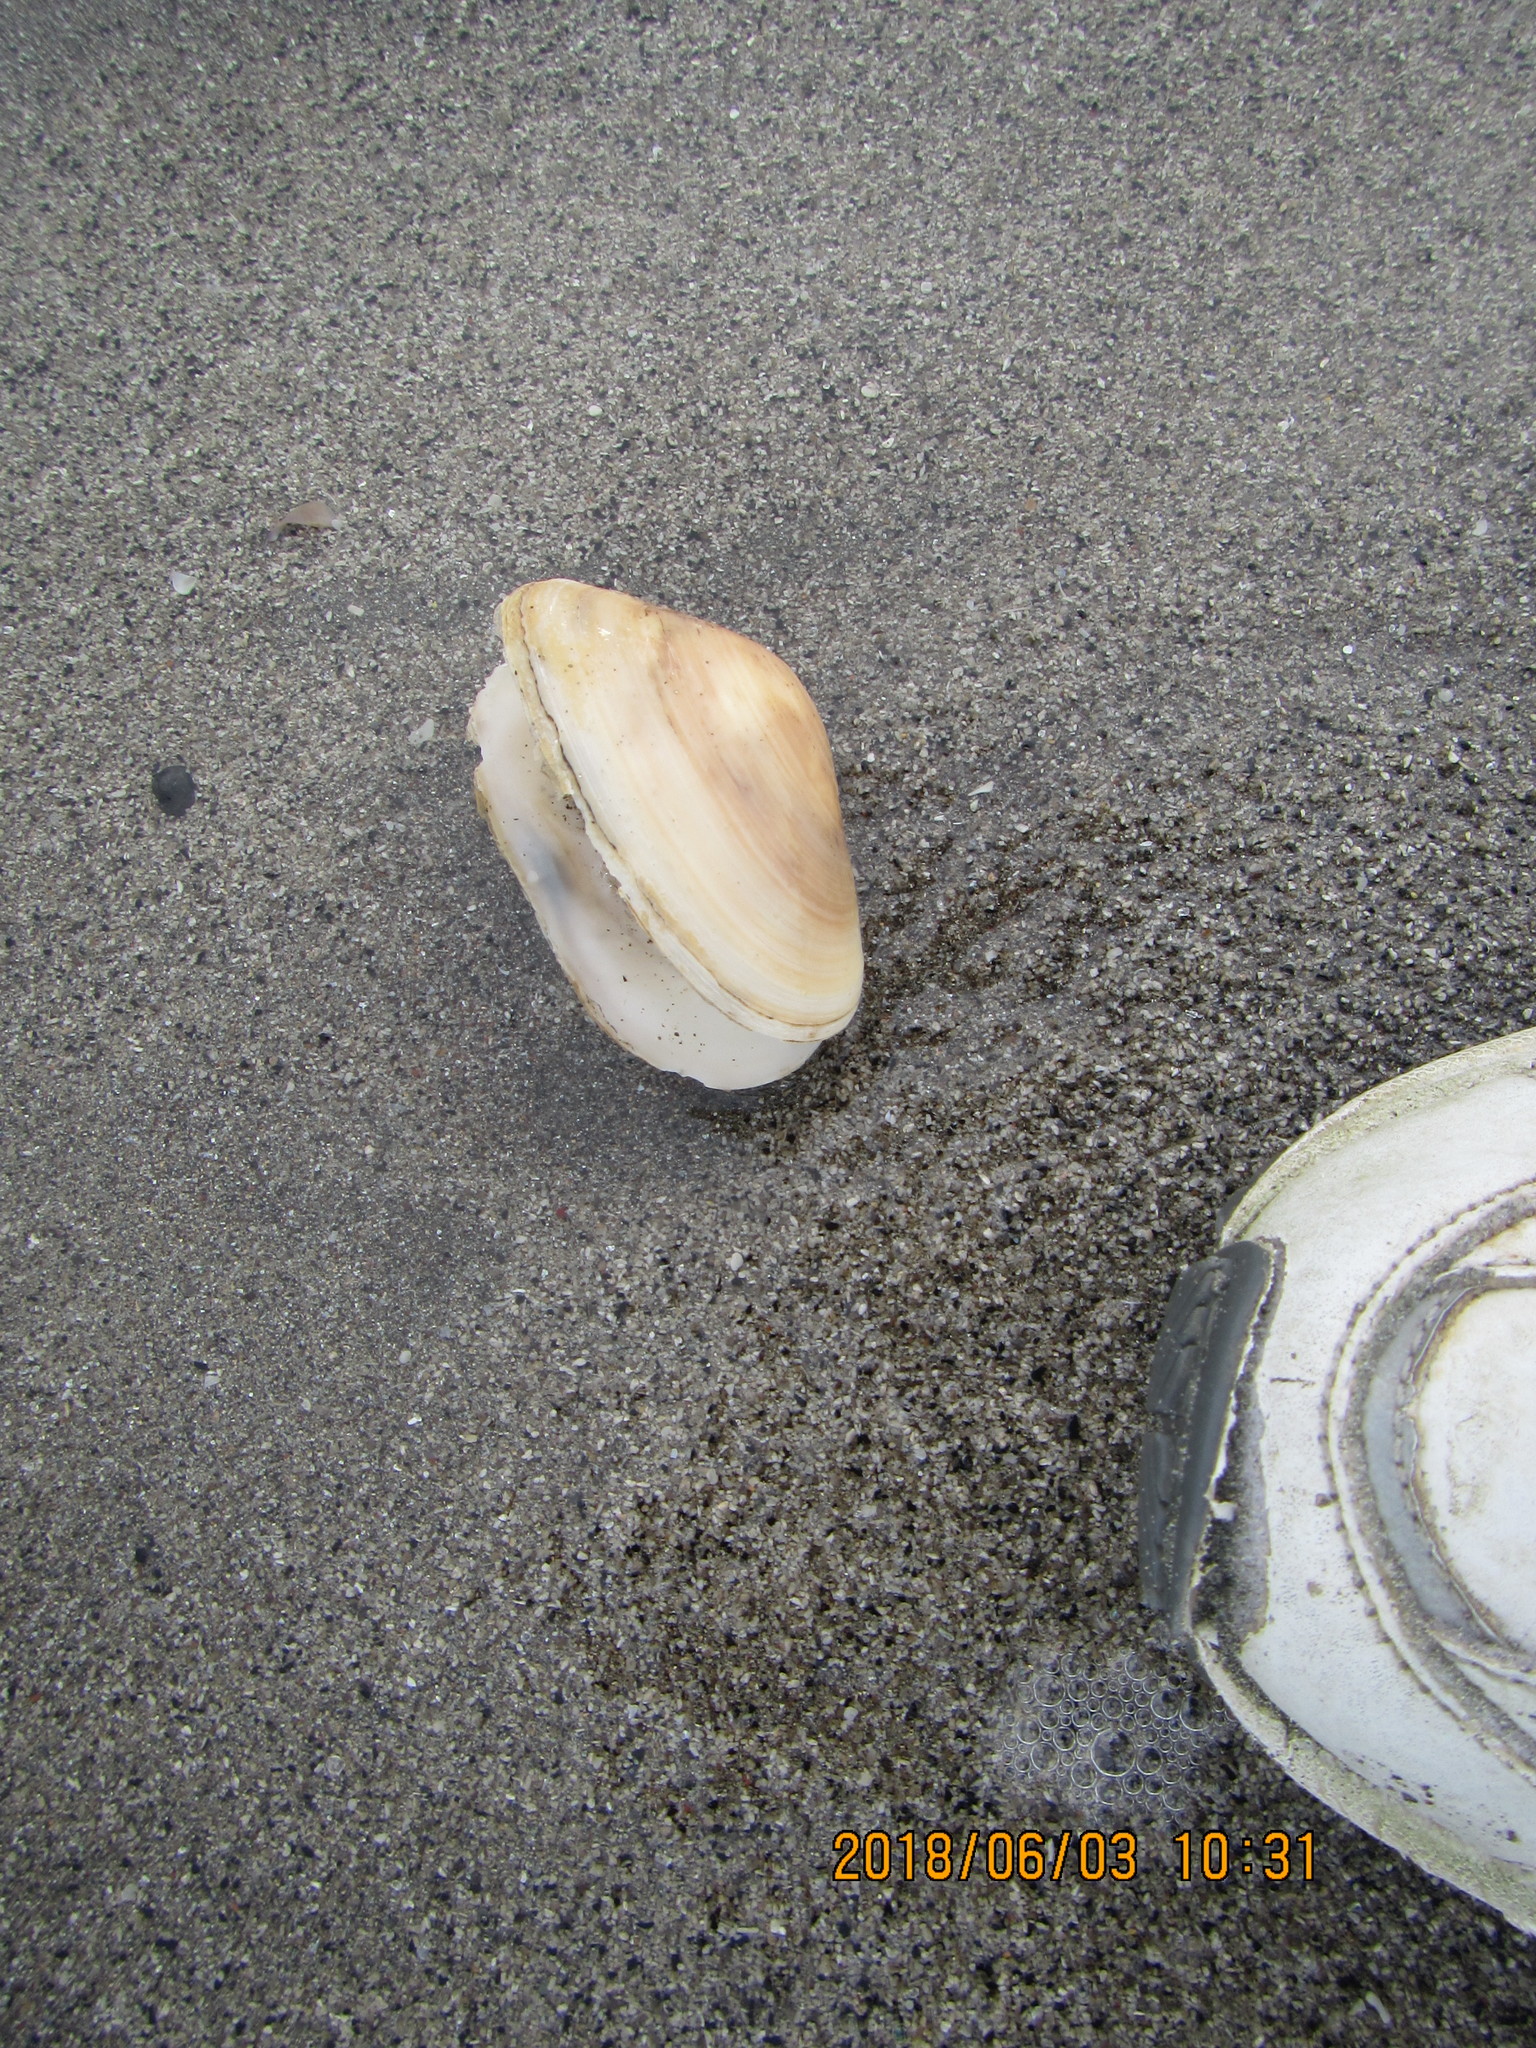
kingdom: Animalia
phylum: Mollusca
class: Bivalvia
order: Venerida
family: Mesodesmatidae
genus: Paphies
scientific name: Paphies subtriangulata
